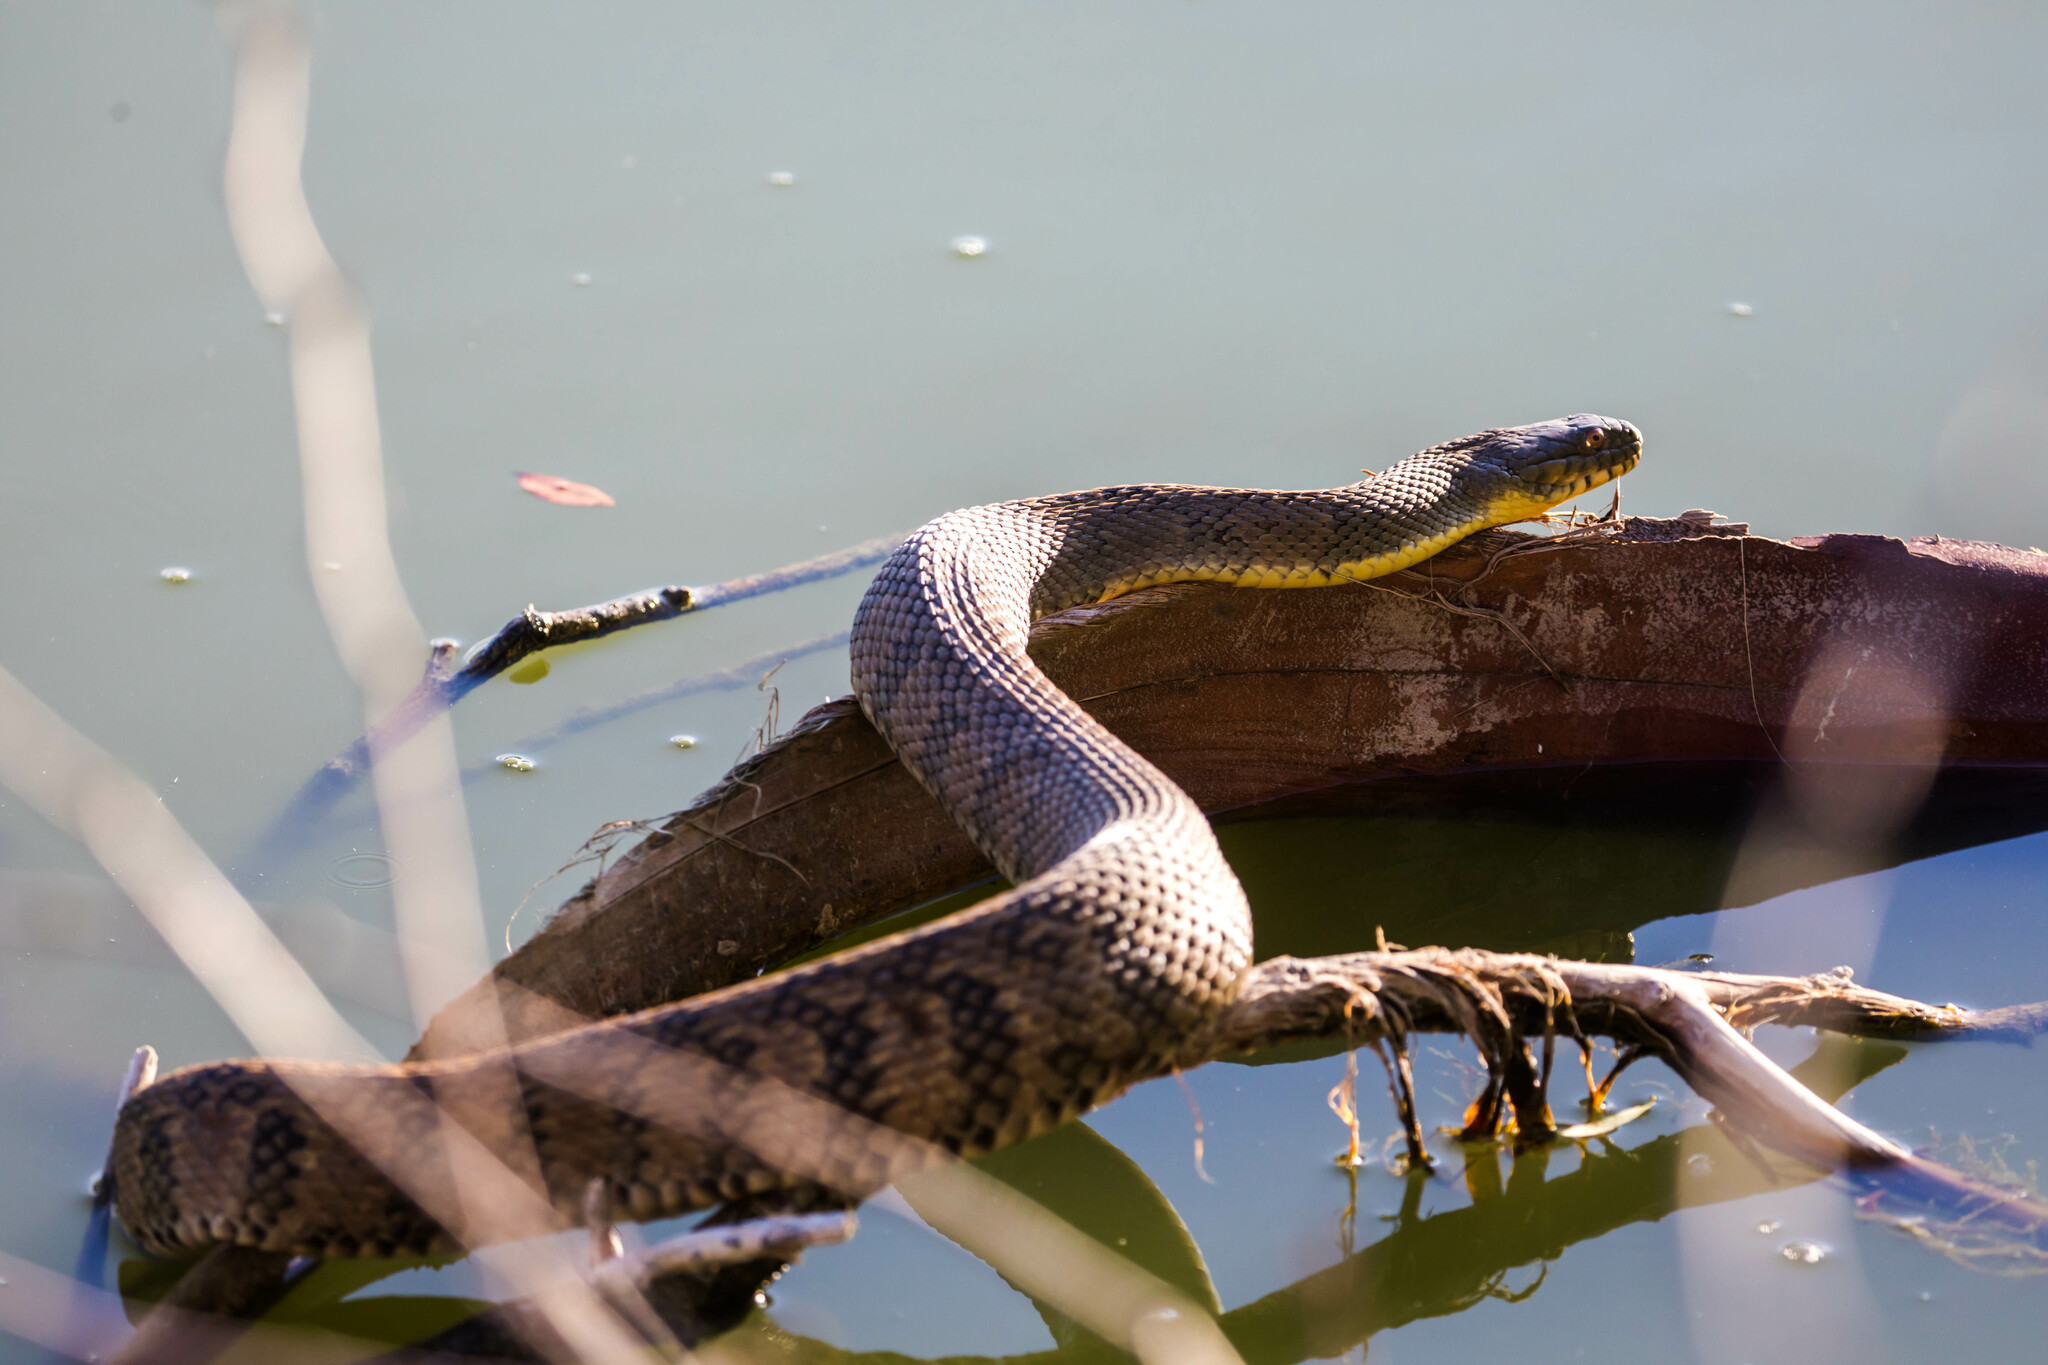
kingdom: Animalia
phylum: Chordata
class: Squamata
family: Colubridae
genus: Nerodia
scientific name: Nerodia rhombifer
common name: Diamondback water snake
